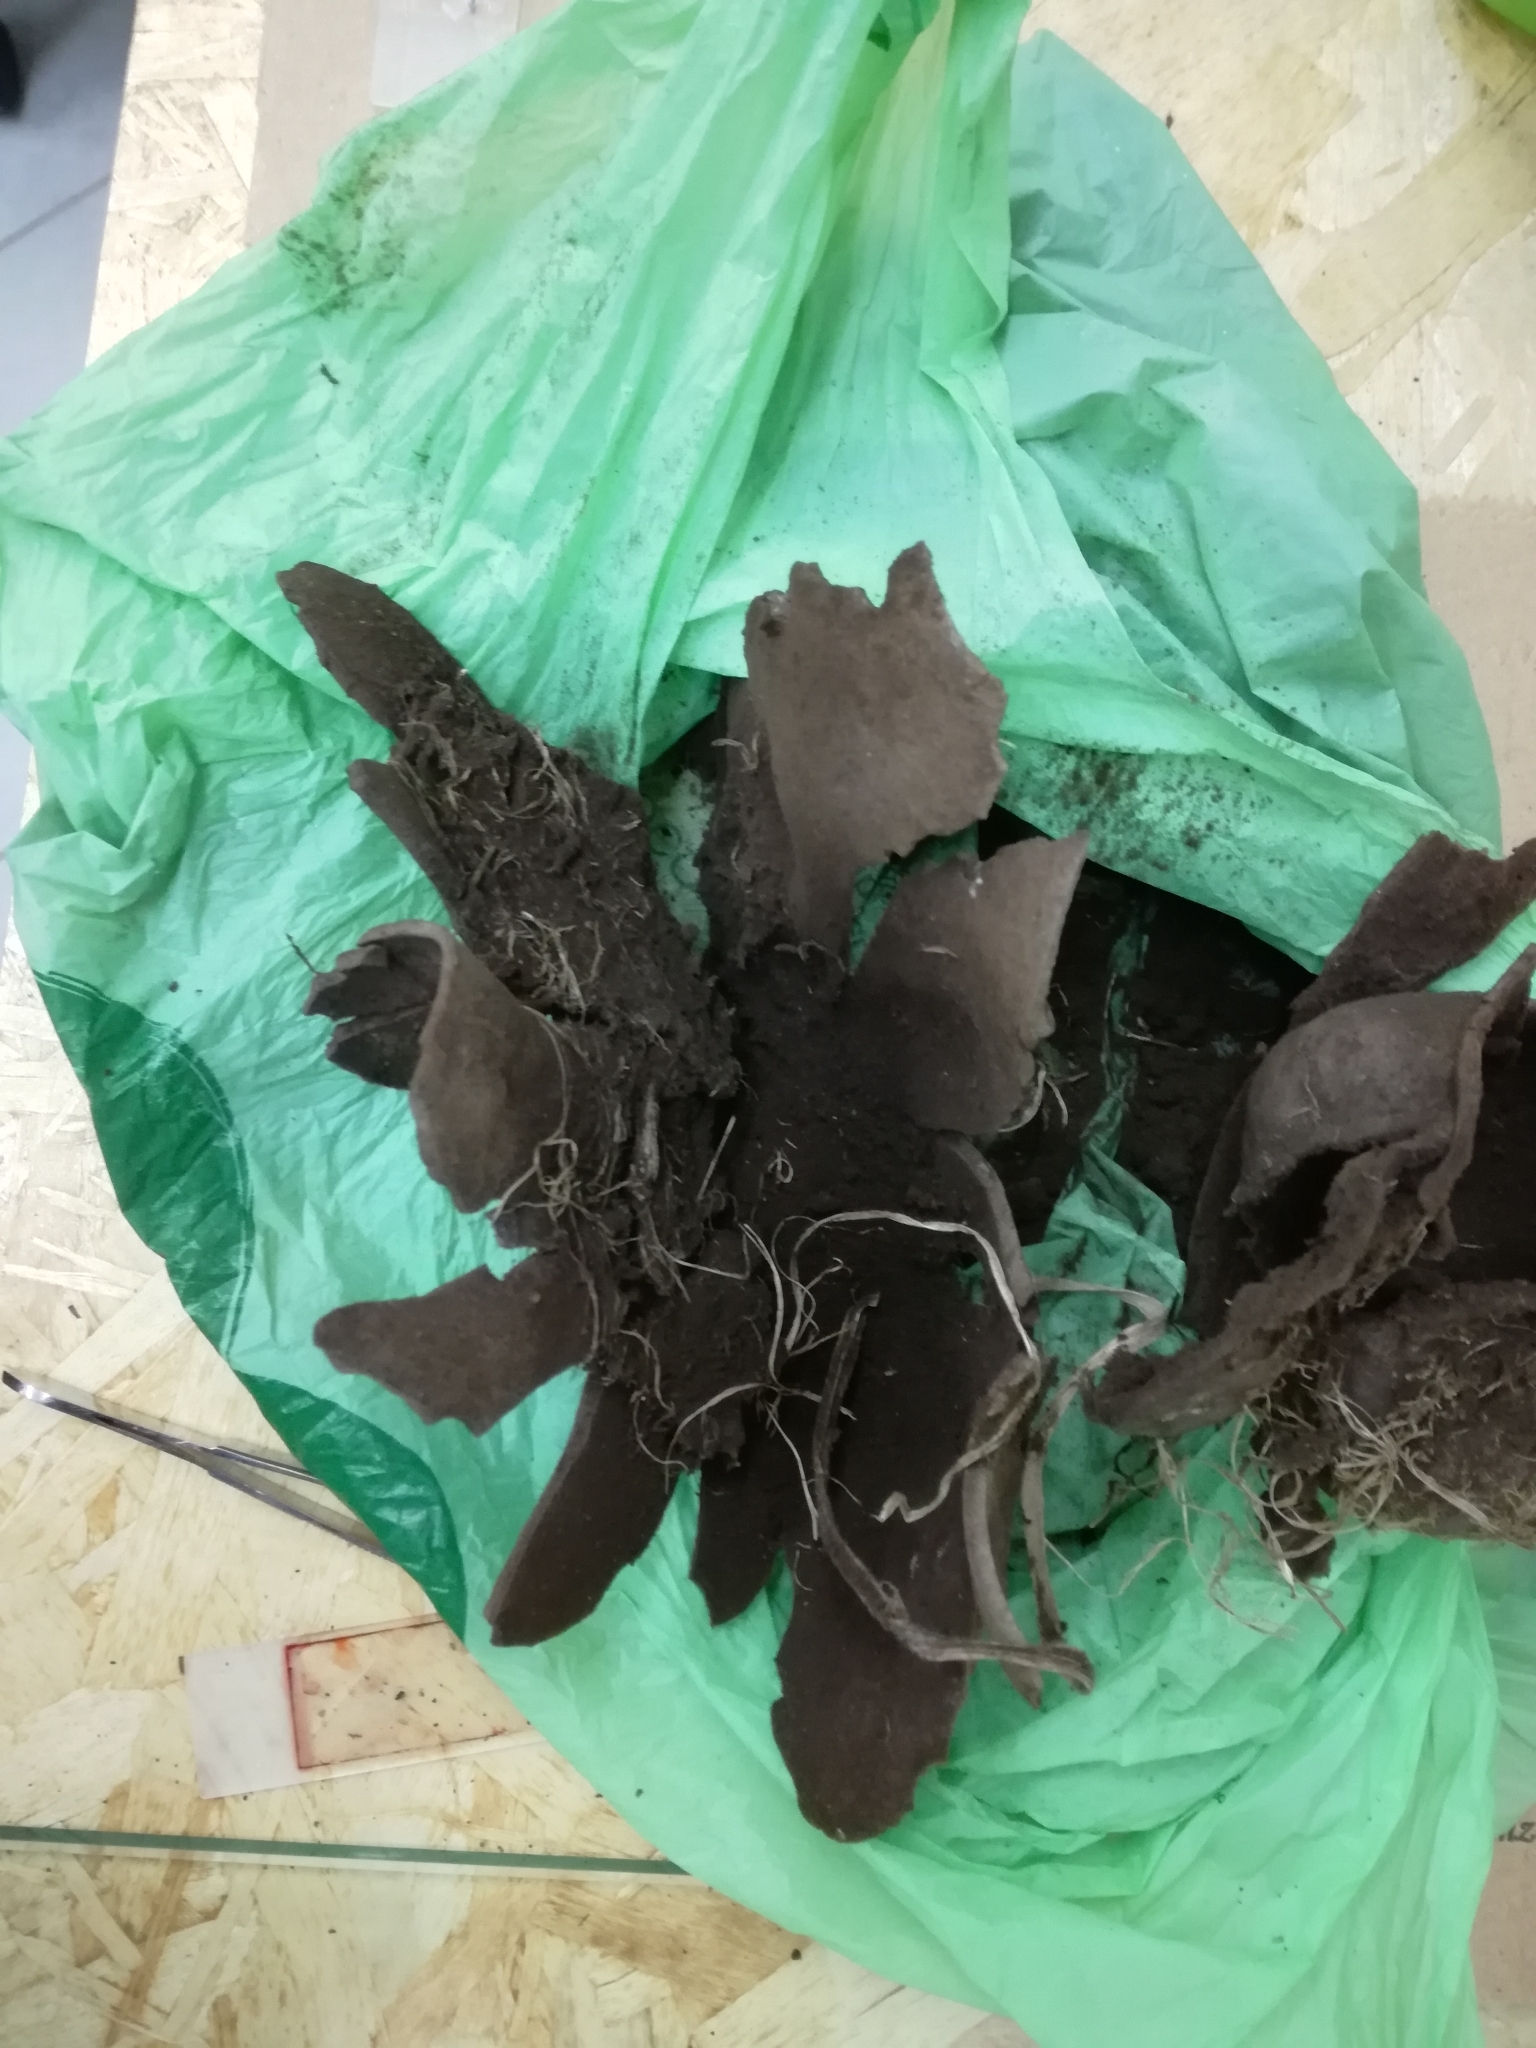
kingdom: Fungi
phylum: Basidiomycota
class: Agaricomycetes
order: Agaricales
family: Agaricaceae
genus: Mycenastrum
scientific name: Mycenastrum corium
